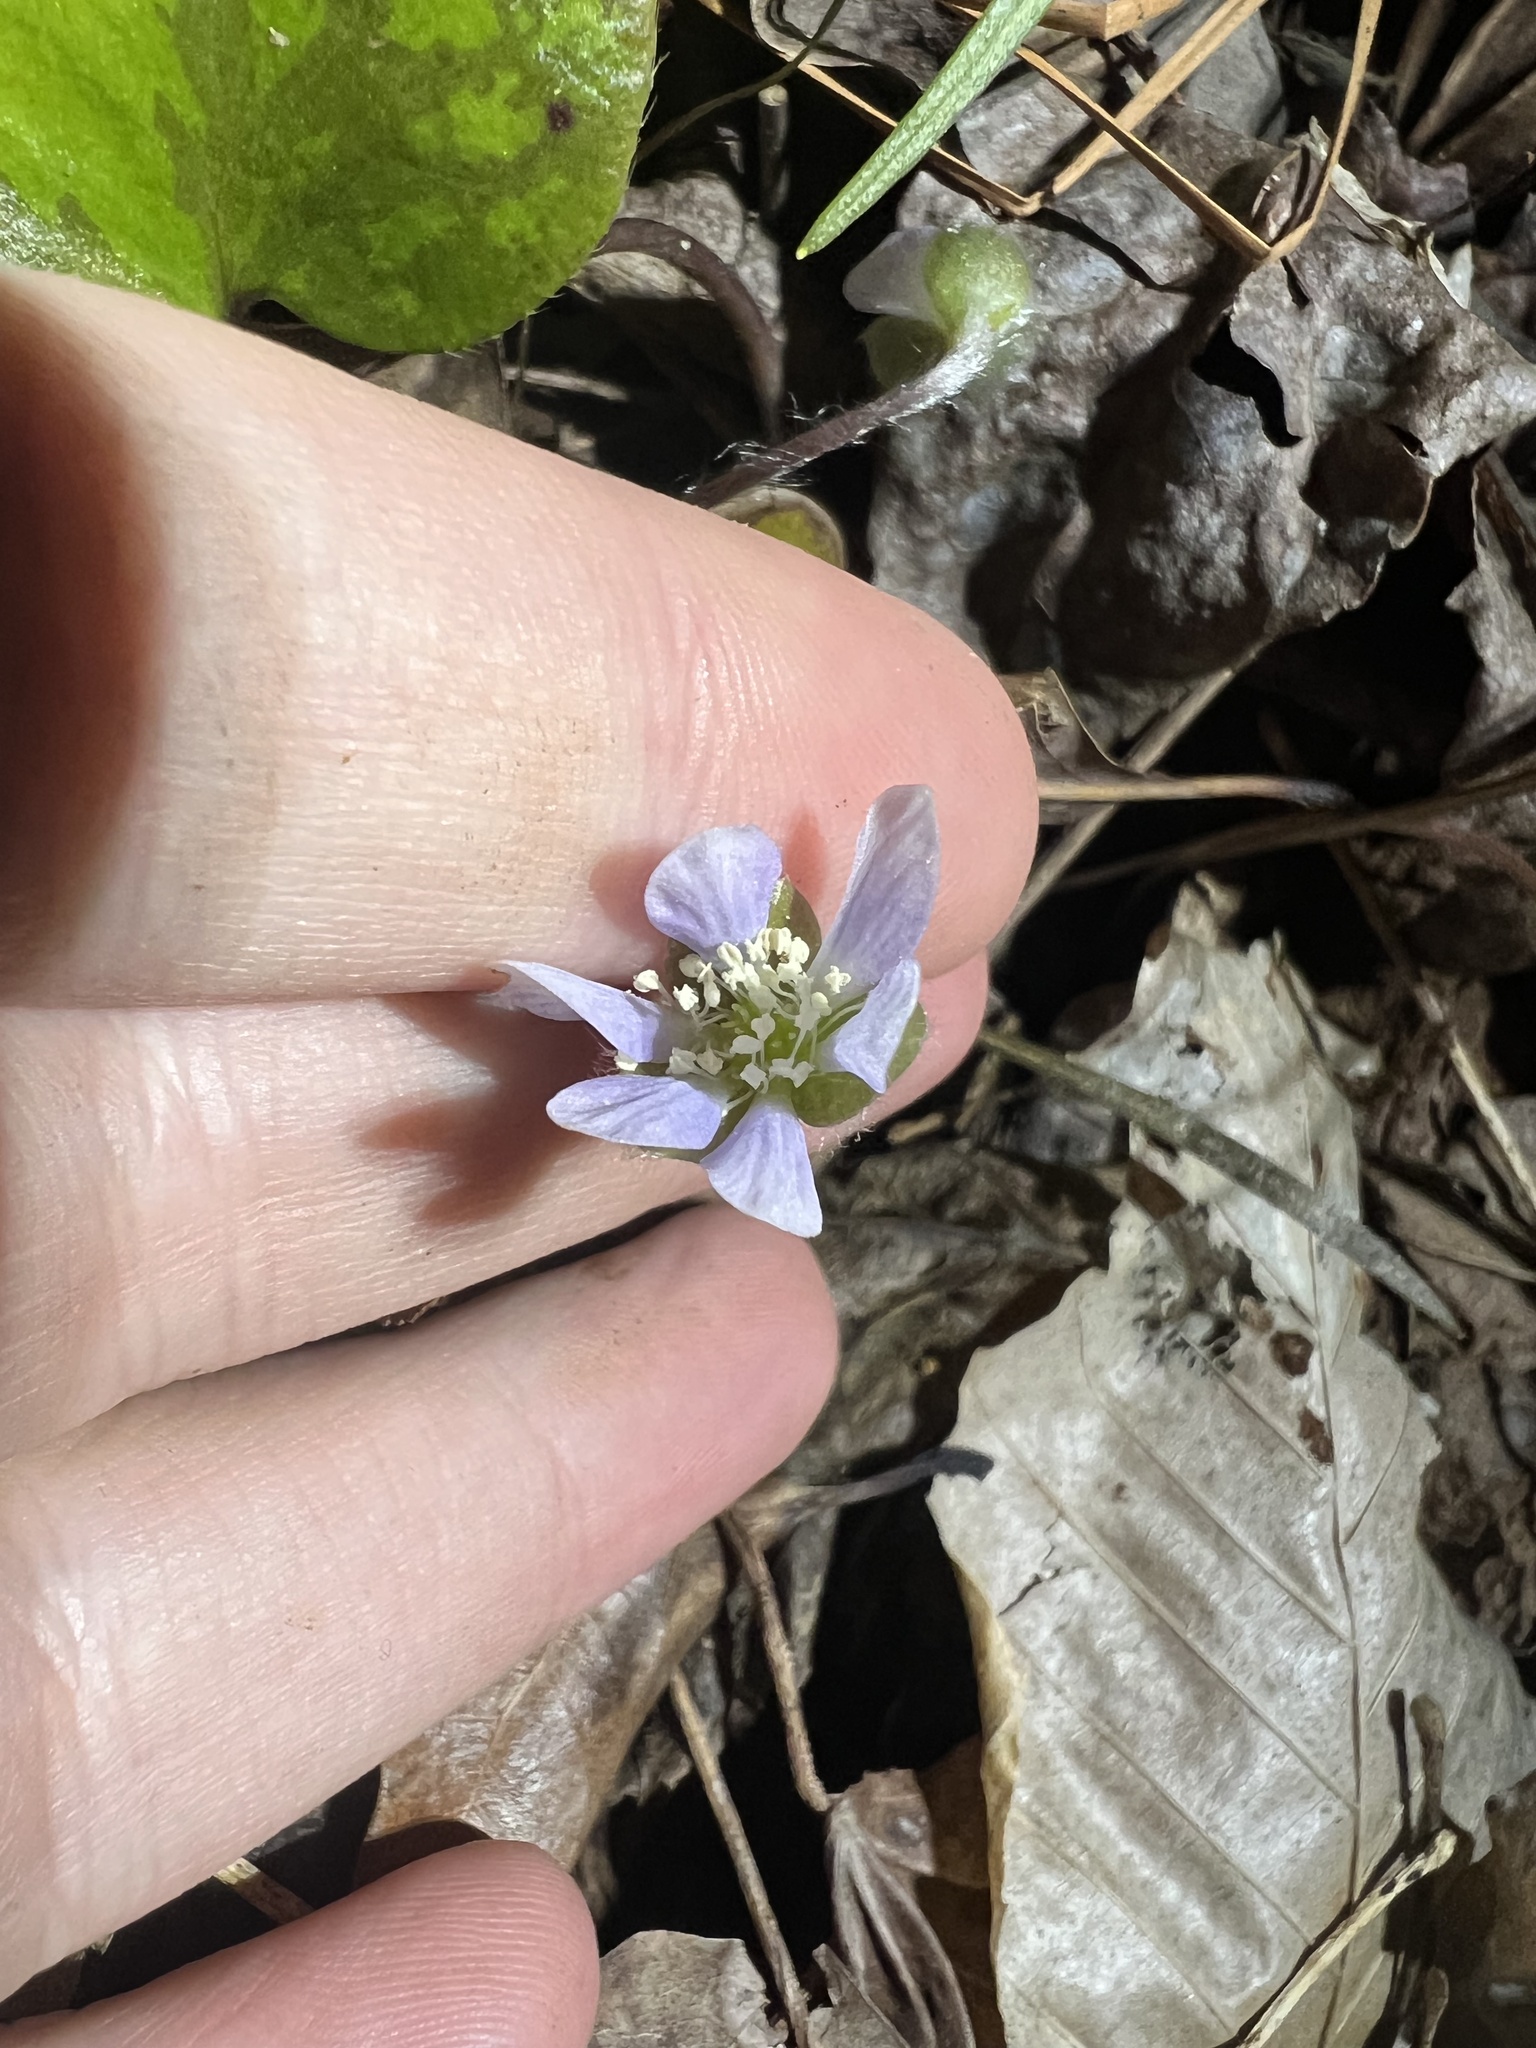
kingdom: Plantae
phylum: Tracheophyta
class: Magnoliopsida
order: Ranunculales
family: Ranunculaceae
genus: Hepatica
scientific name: Hepatica americana
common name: American hepatica
